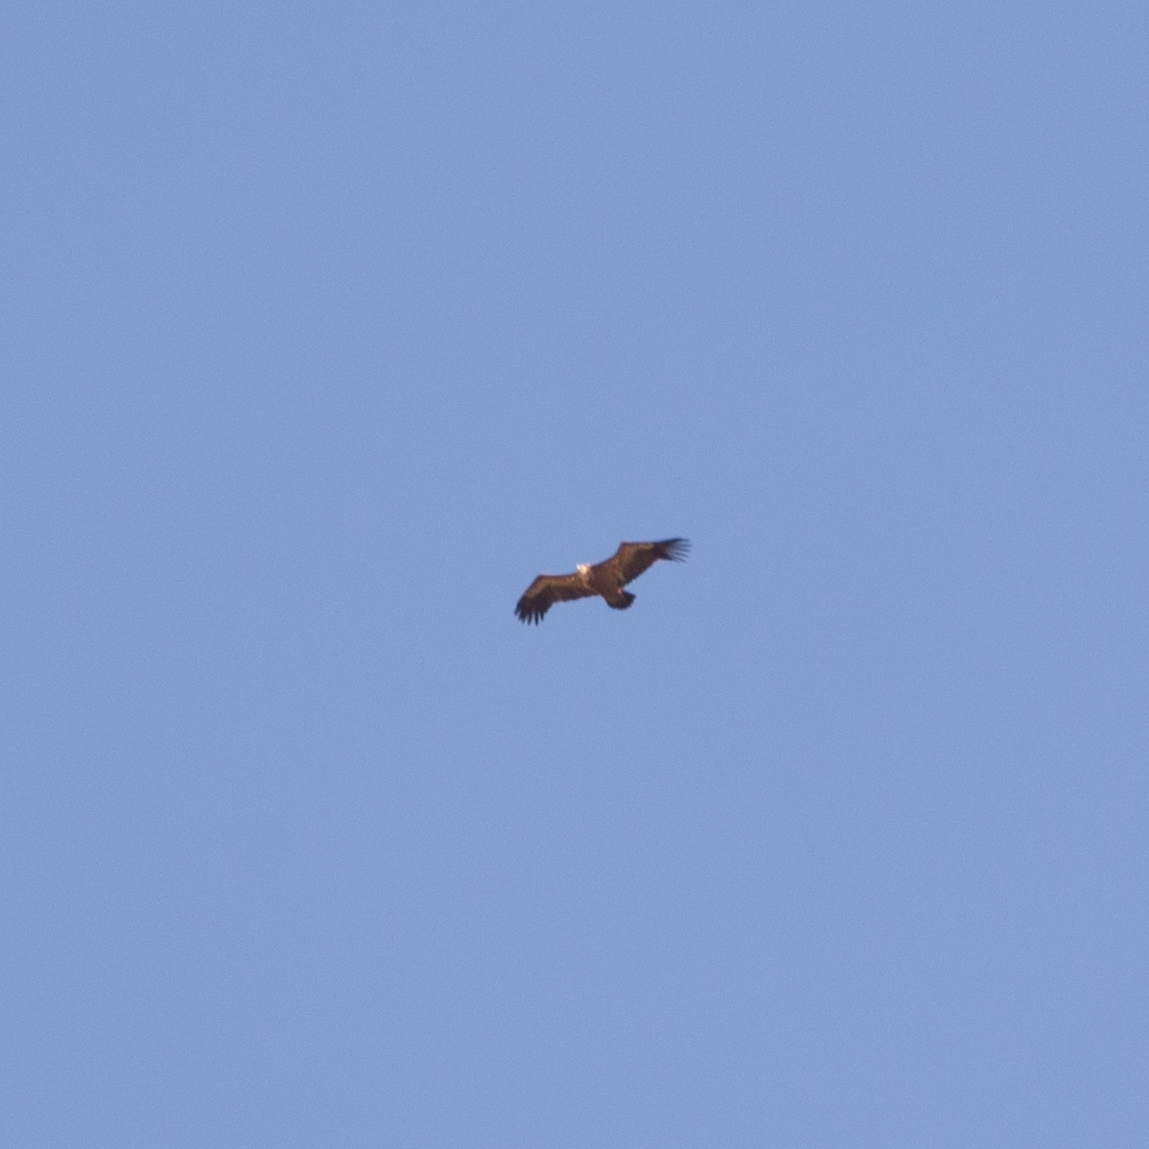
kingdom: Animalia
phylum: Chordata
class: Aves
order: Accipitriformes
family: Accipitridae
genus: Gyps
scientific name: Gyps fulvus
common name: Griffon vulture
